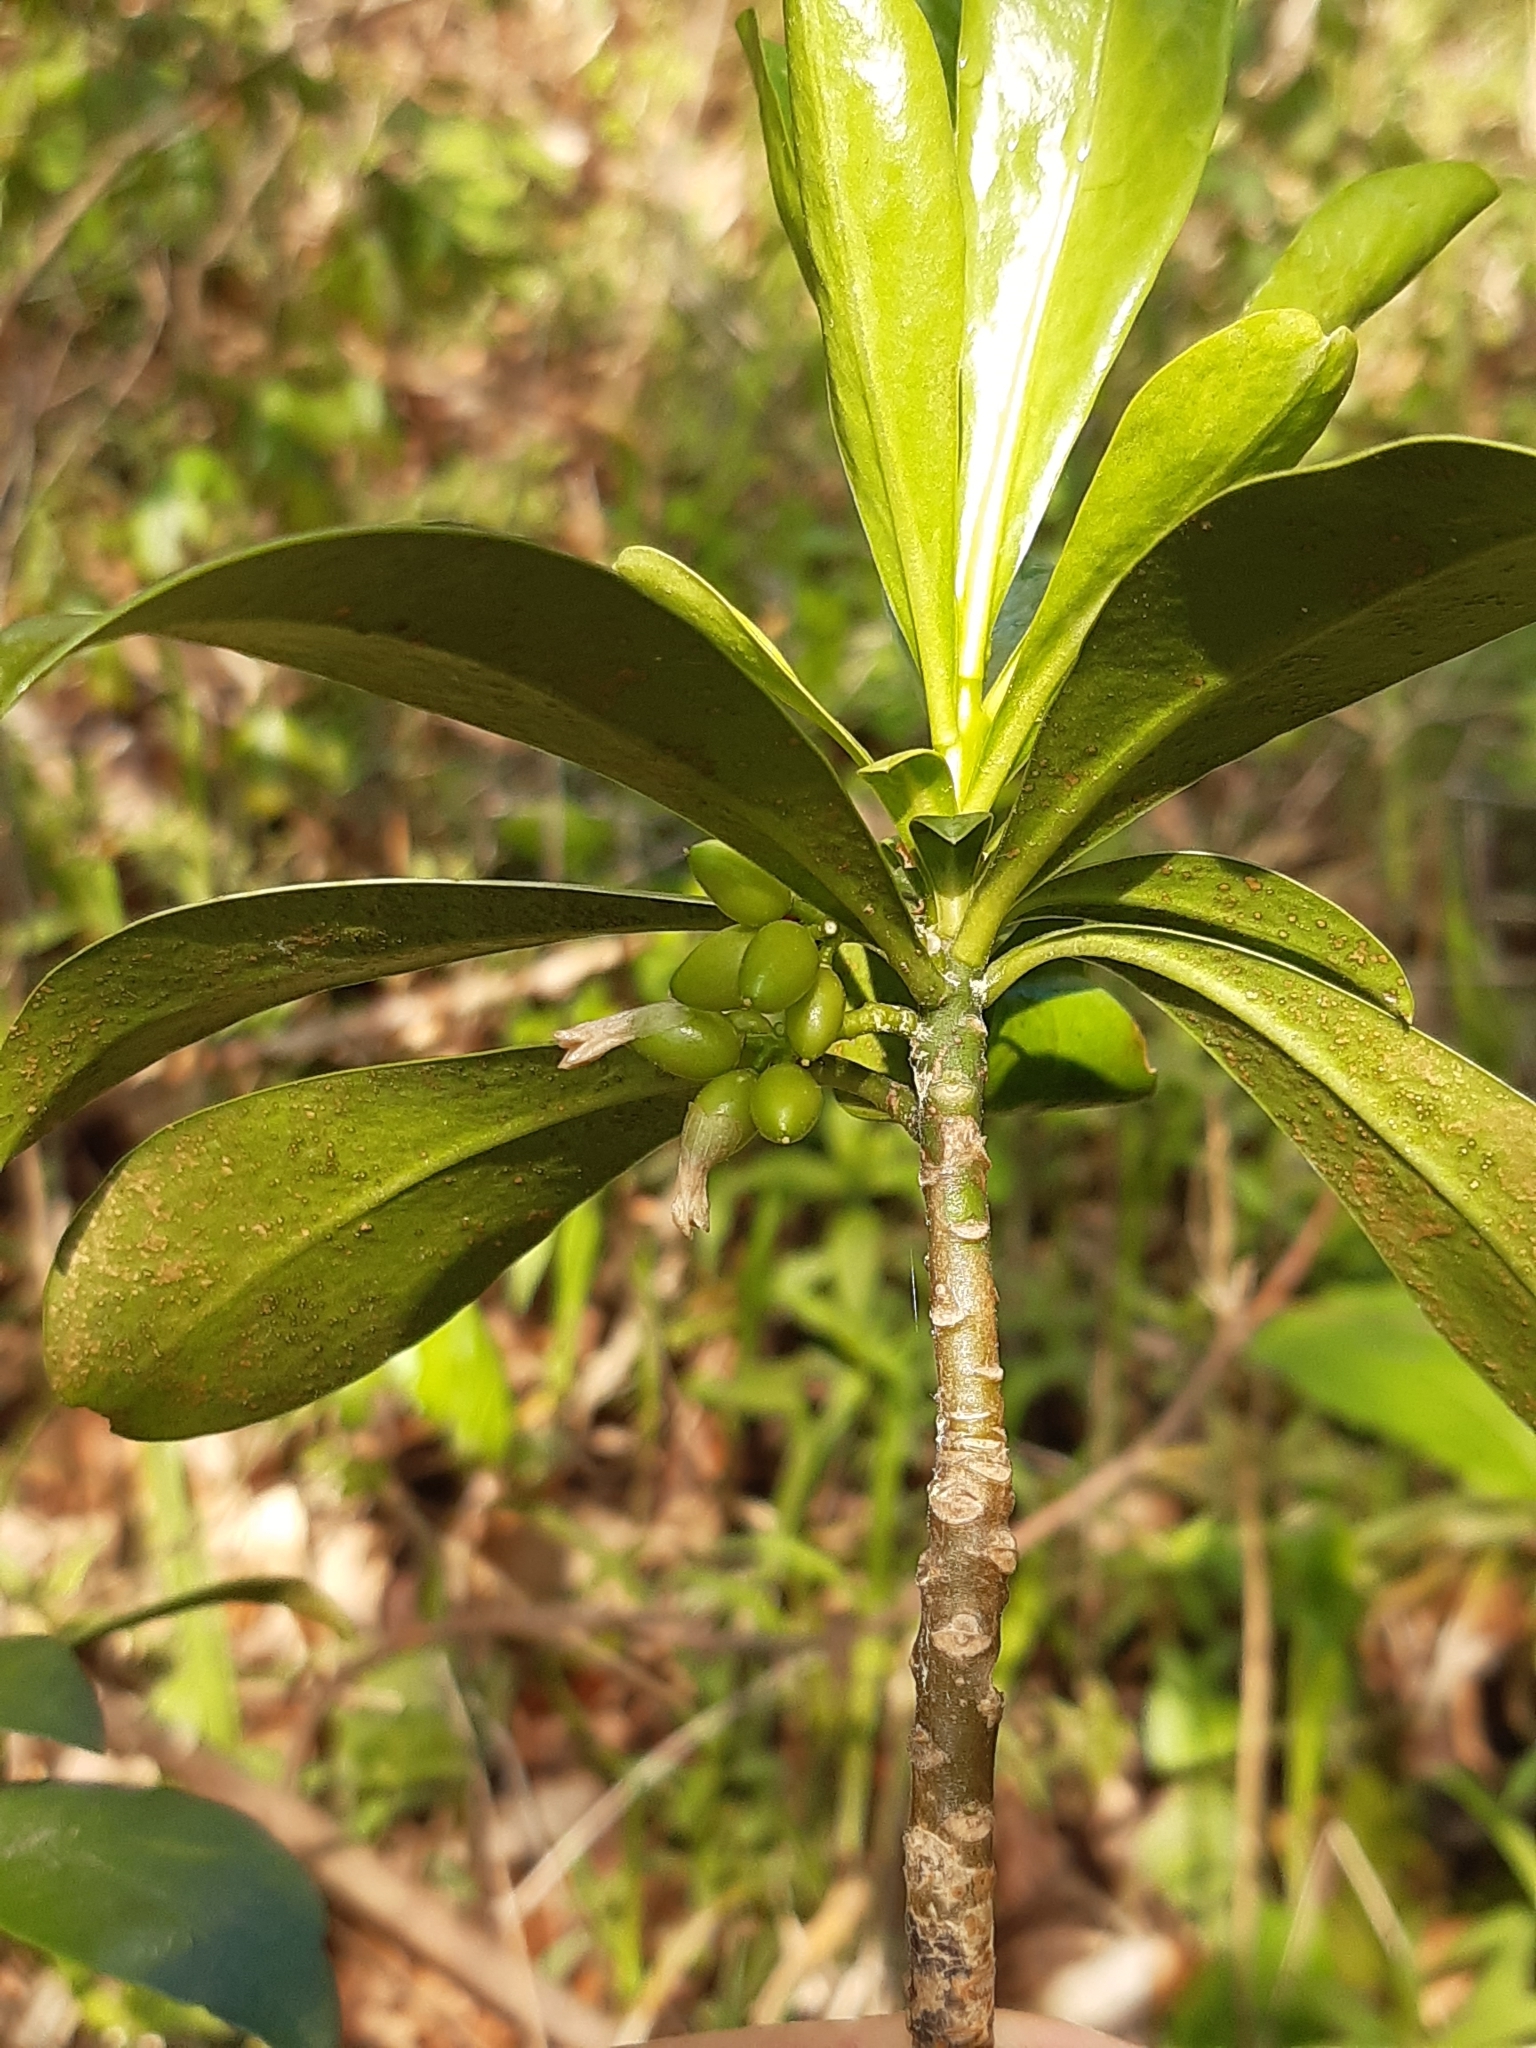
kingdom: Plantae
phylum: Tracheophyta
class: Magnoliopsida
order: Malvales
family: Thymelaeaceae
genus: Daphne
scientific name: Daphne laureola
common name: Spurge-laurel
